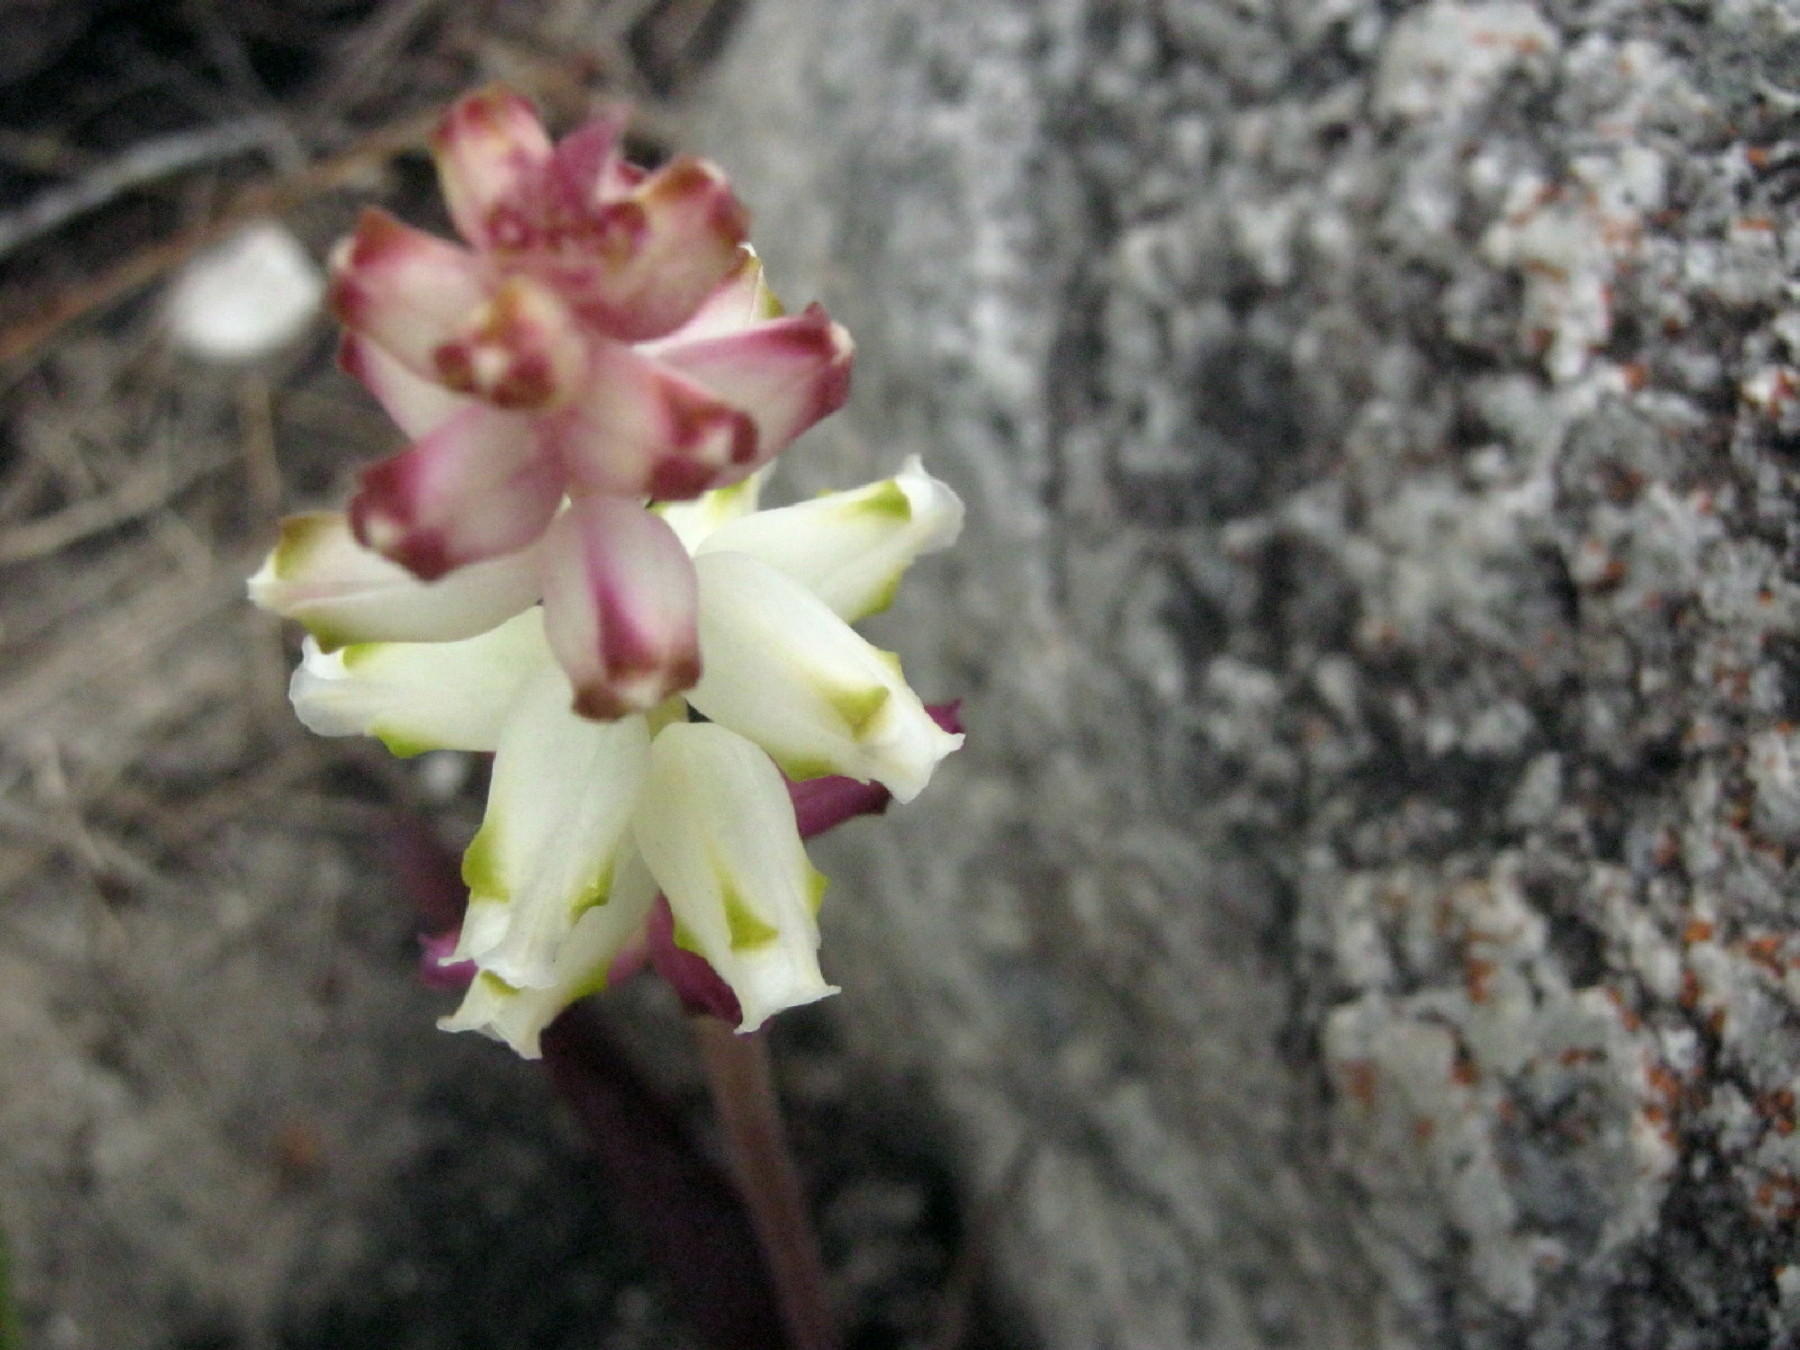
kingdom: Plantae
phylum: Tracheophyta
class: Liliopsida
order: Asparagales
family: Asparagaceae
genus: Lachenalia
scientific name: Lachenalia peersii
